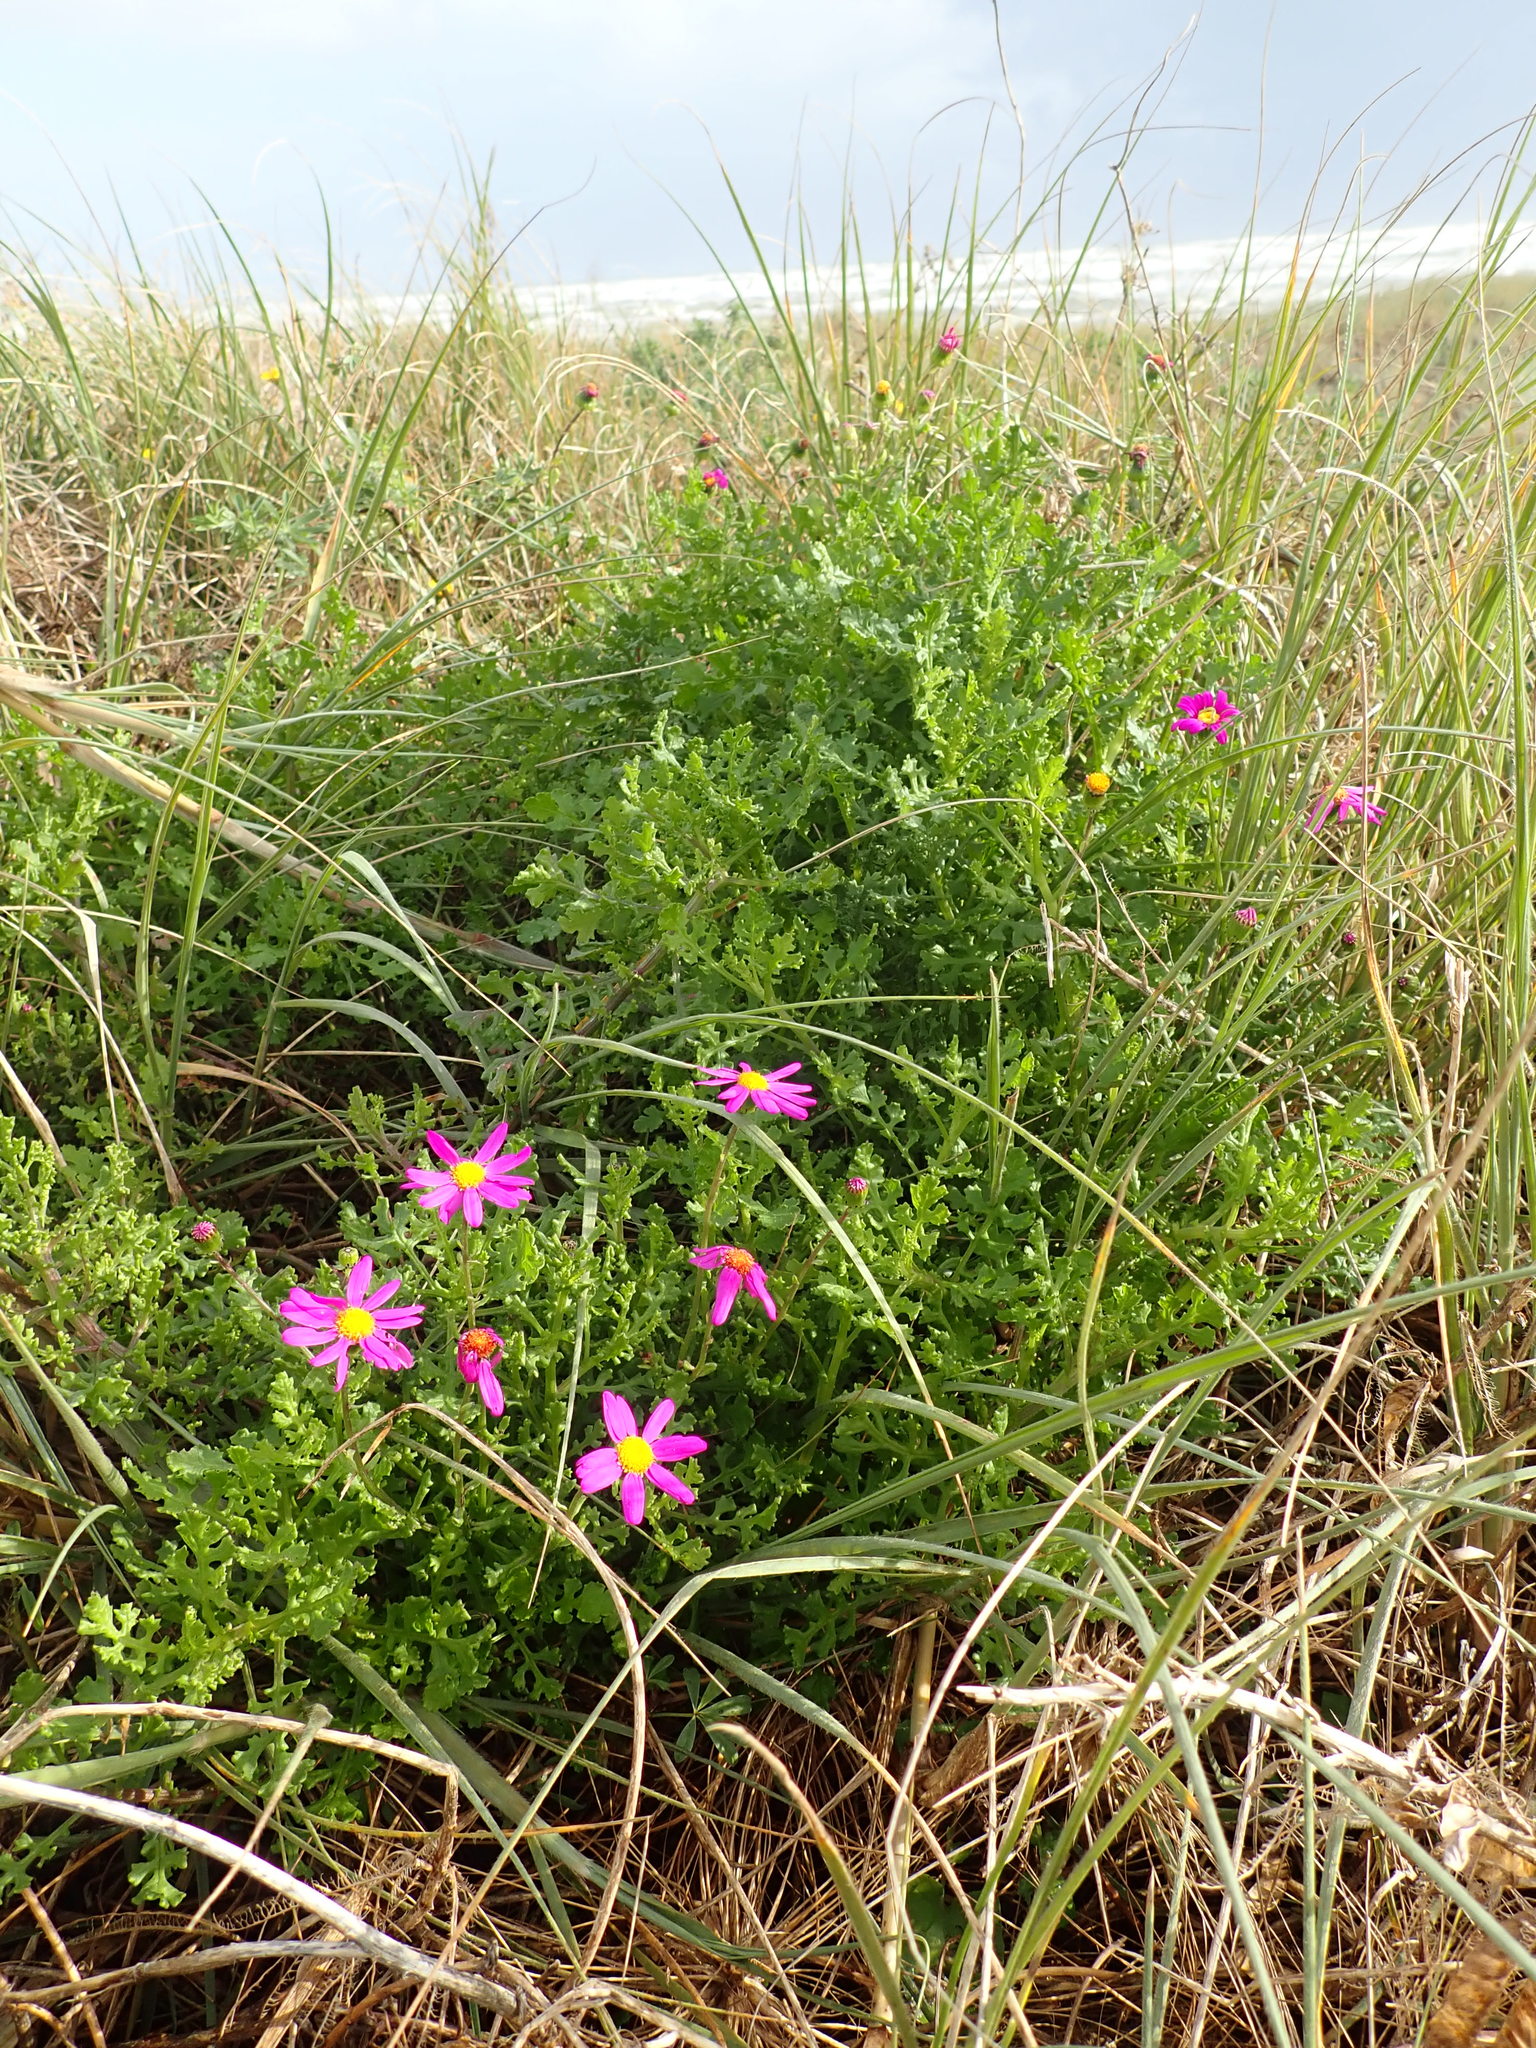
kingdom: Plantae
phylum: Tracheophyta
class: Magnoliopsida
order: Asterales
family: Asteraceae
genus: Senecio
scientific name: Senecio elegans
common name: Purple groundsel
